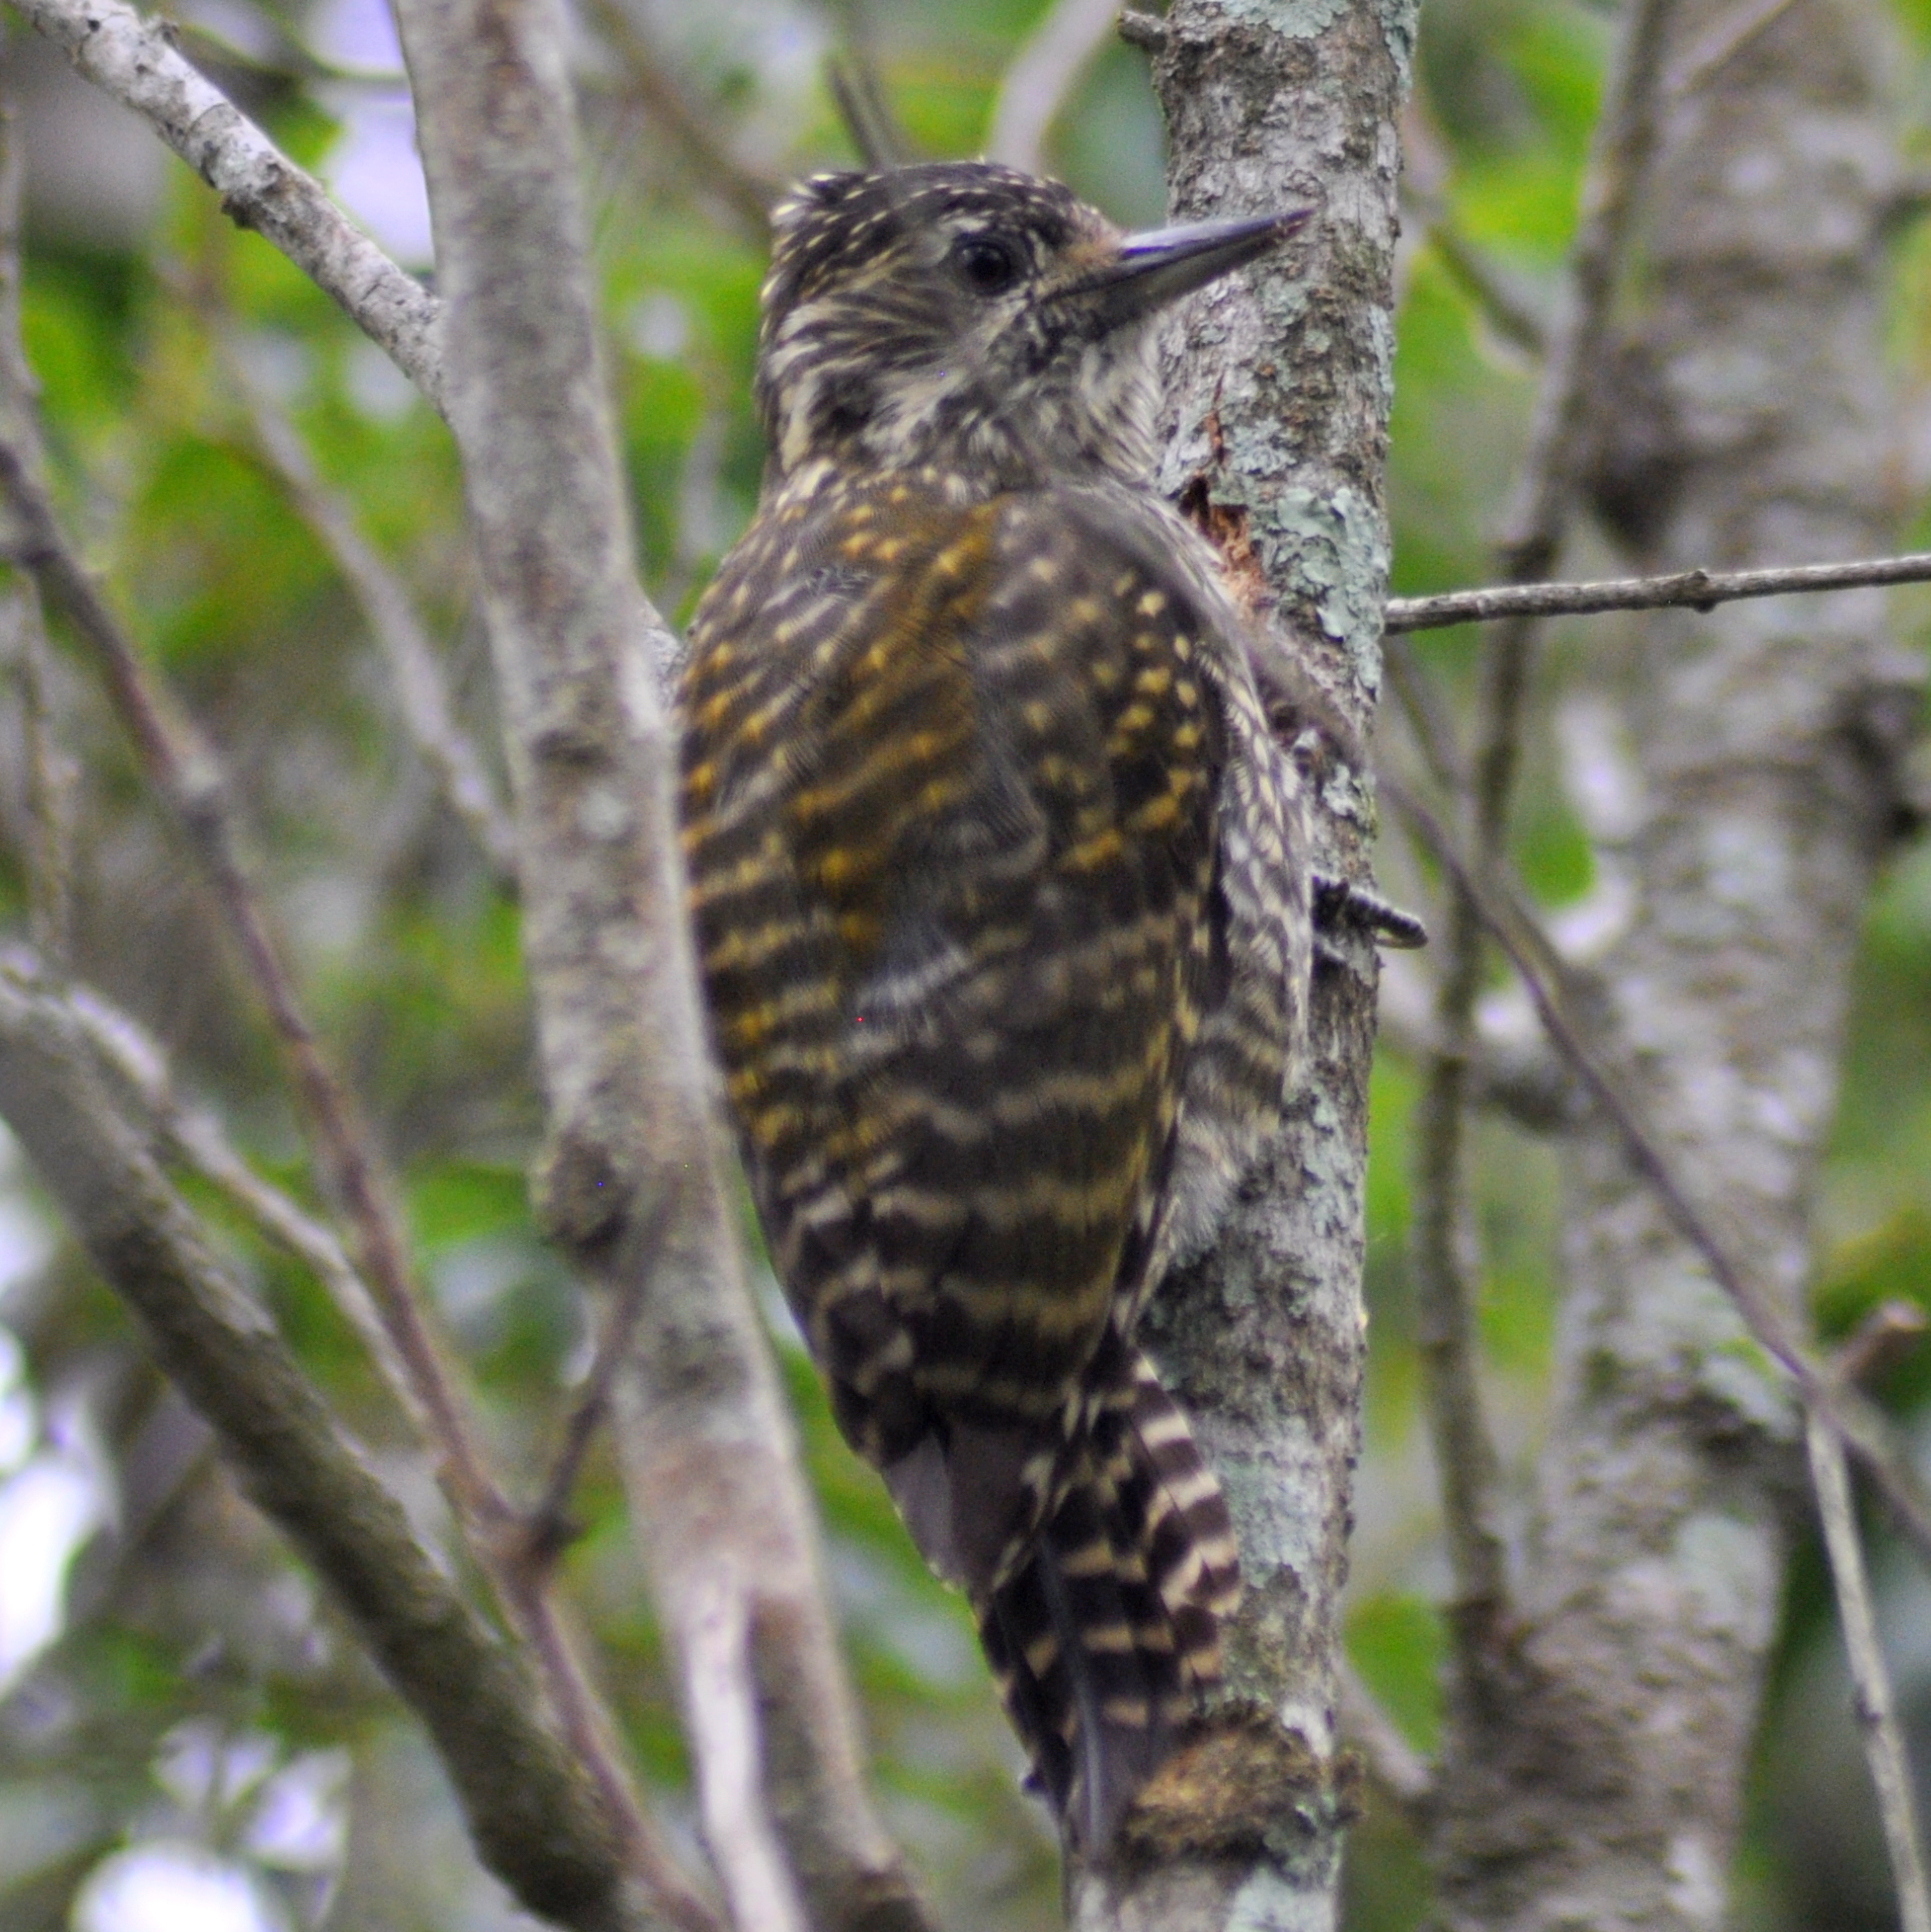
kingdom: Animalia
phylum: Chordata
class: Aves
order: Piciformes
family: Picidae
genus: Veniliornis
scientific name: Veniliornis spilogaster
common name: White-spotted woodpecker
